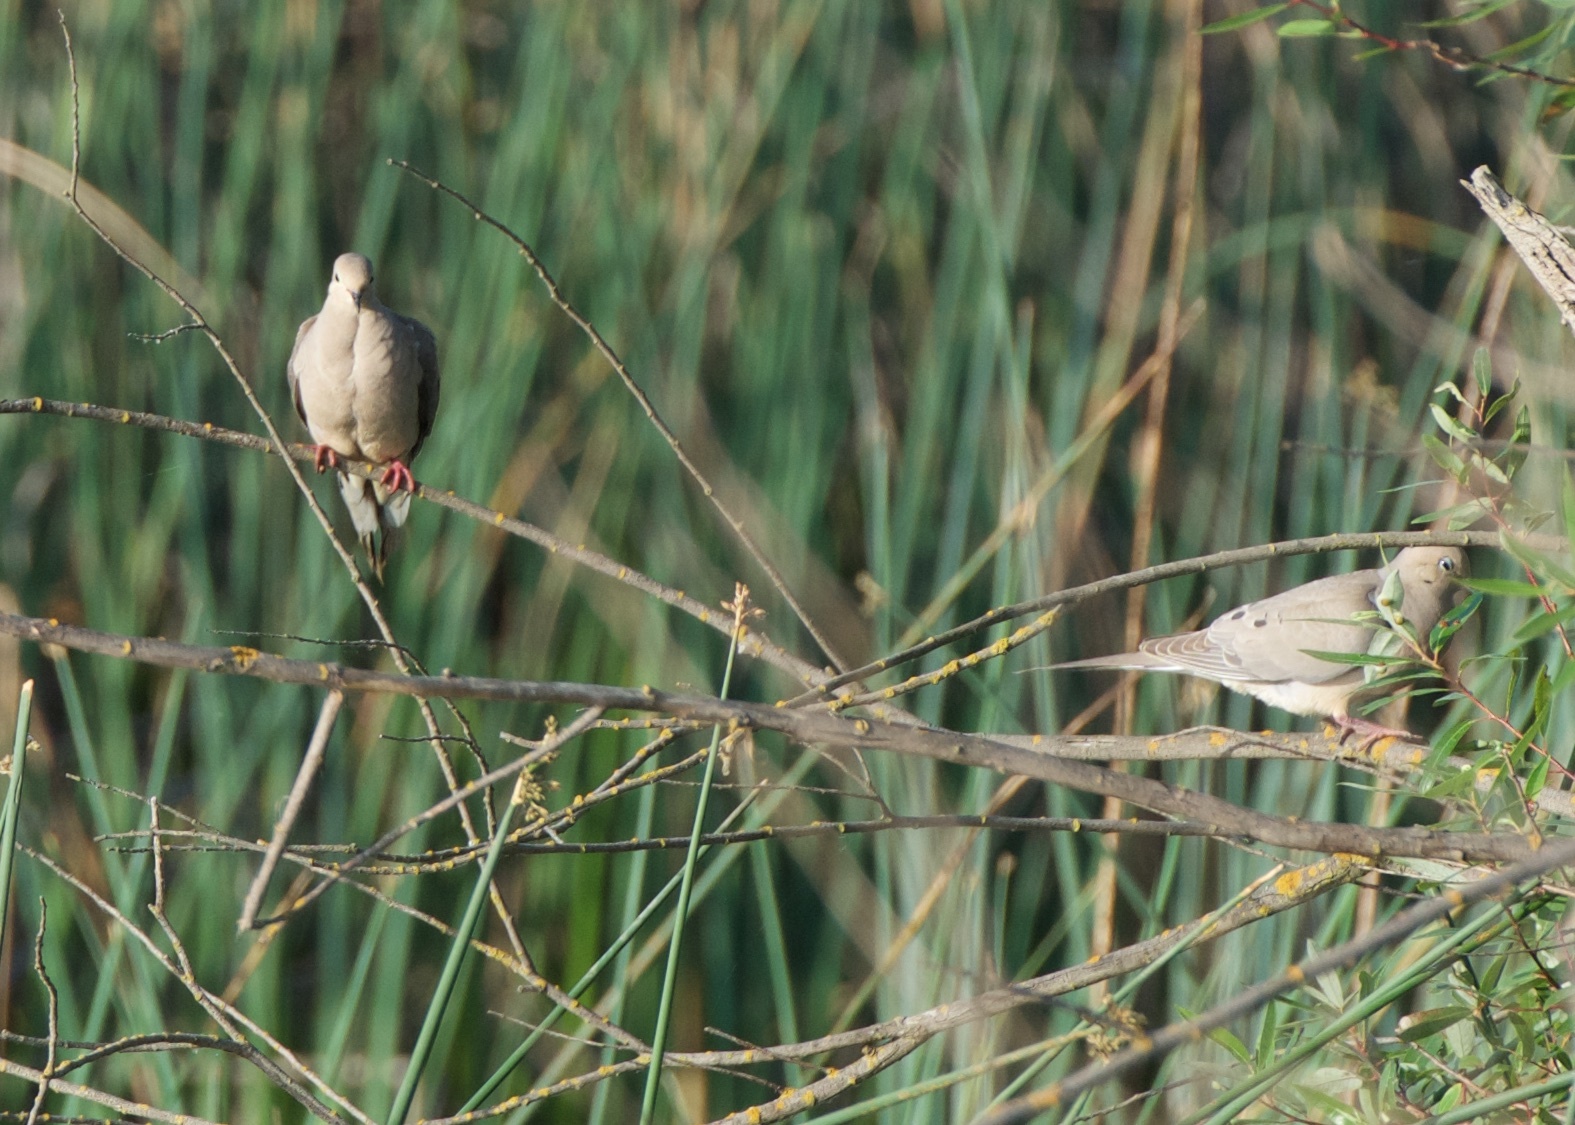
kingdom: Animalia
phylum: Chordata
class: Aves
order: Columbiformes
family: Columbidae
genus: Zenaida
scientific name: Zenaida macroura
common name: Mourning dove
